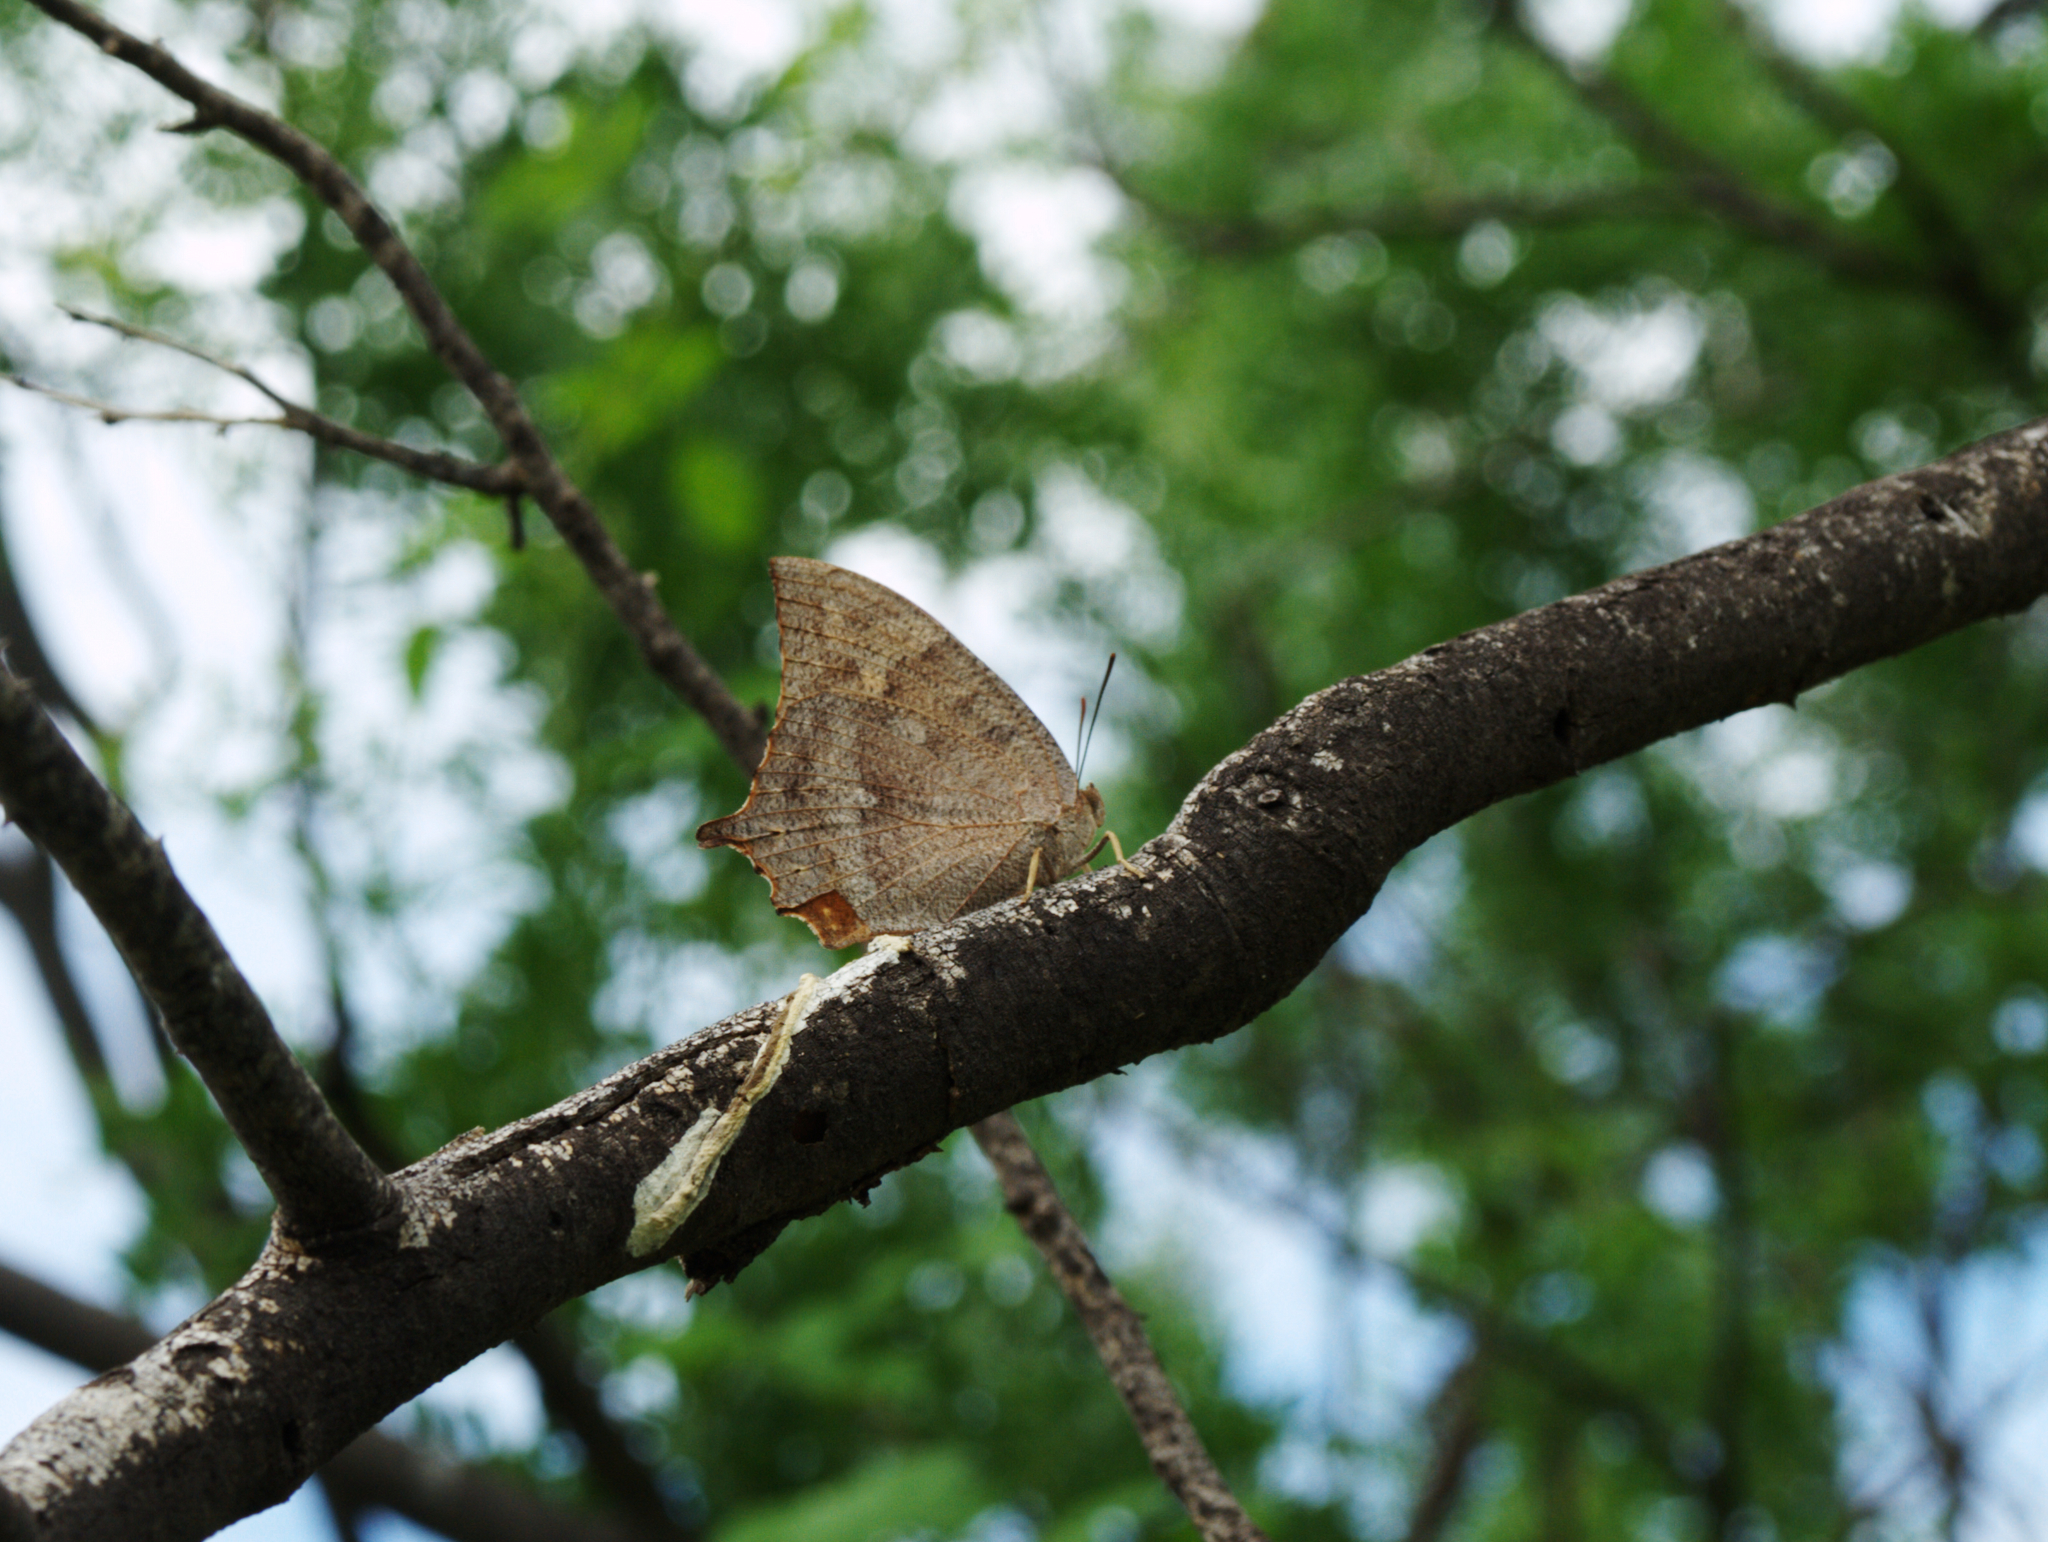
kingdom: Animalia
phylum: Arthropoda
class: Insecta
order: Lepidoptera
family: Nymphalidae
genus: Anaea
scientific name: Anaea aidea
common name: Tropical leafwing
